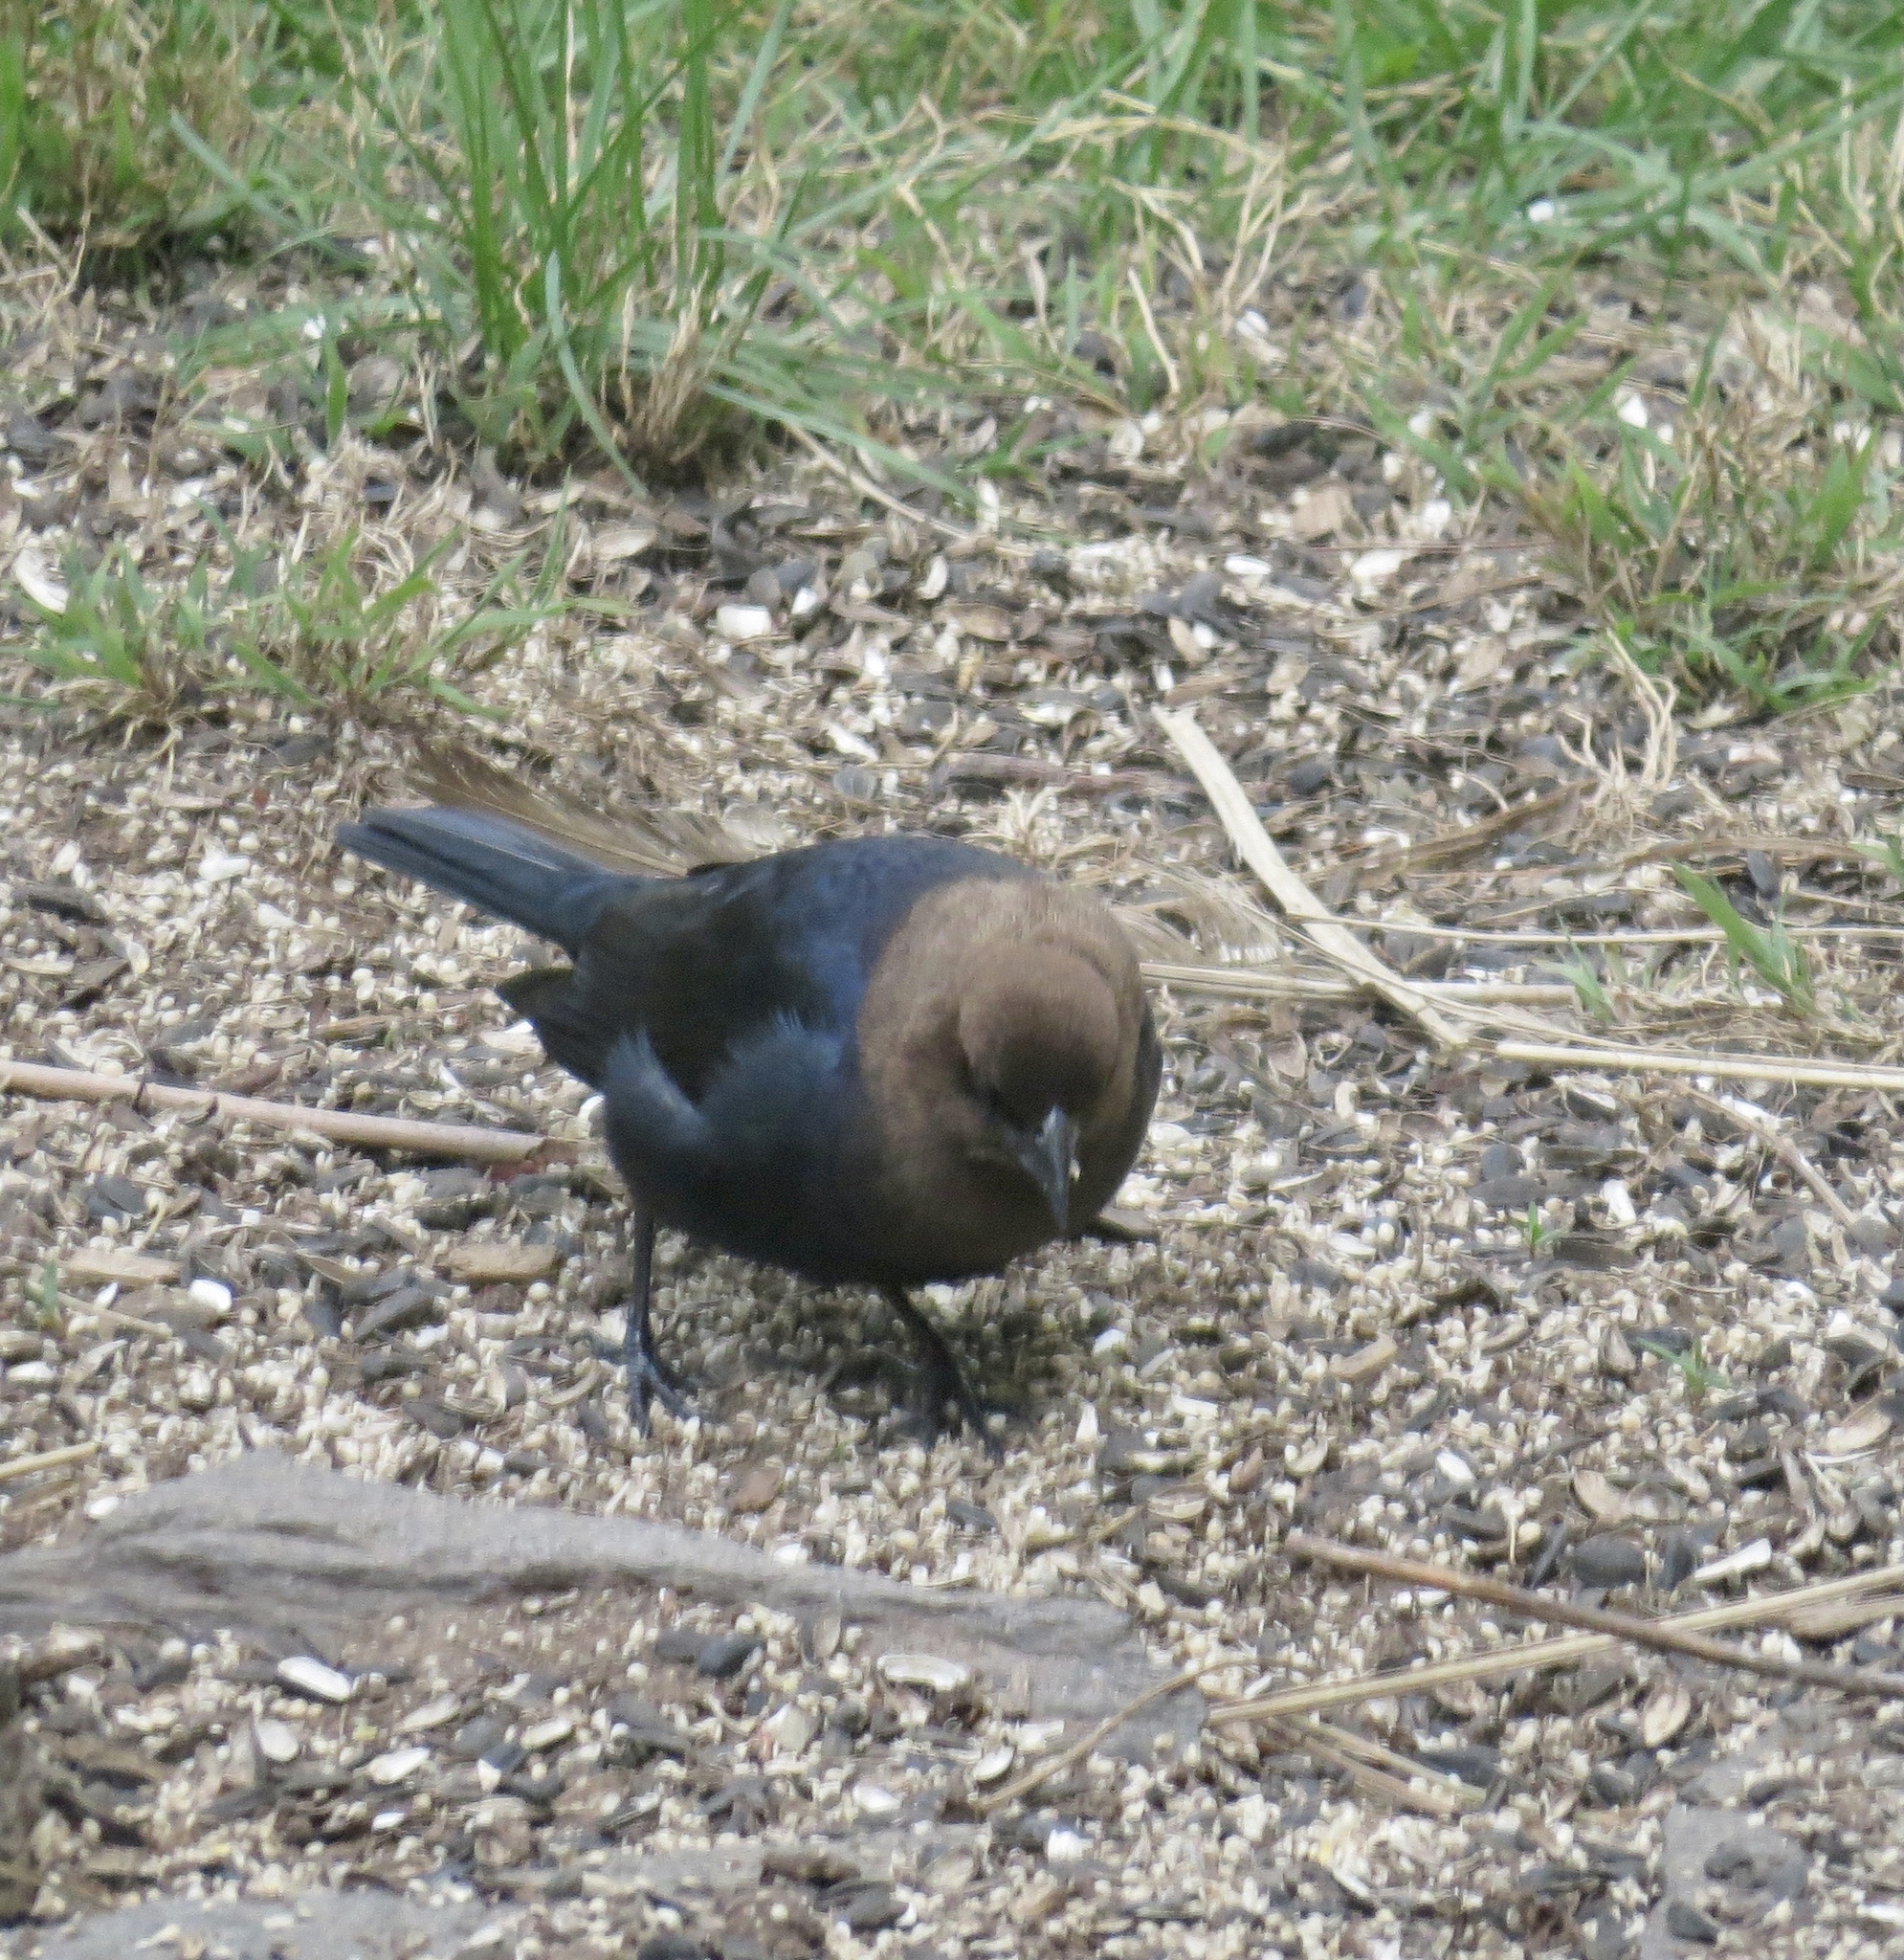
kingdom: Animalia
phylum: Chordata
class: Aves
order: Passeriformes
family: Icteridae
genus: Molothrus
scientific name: Molothrus ater
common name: Brown-headed cowbird
